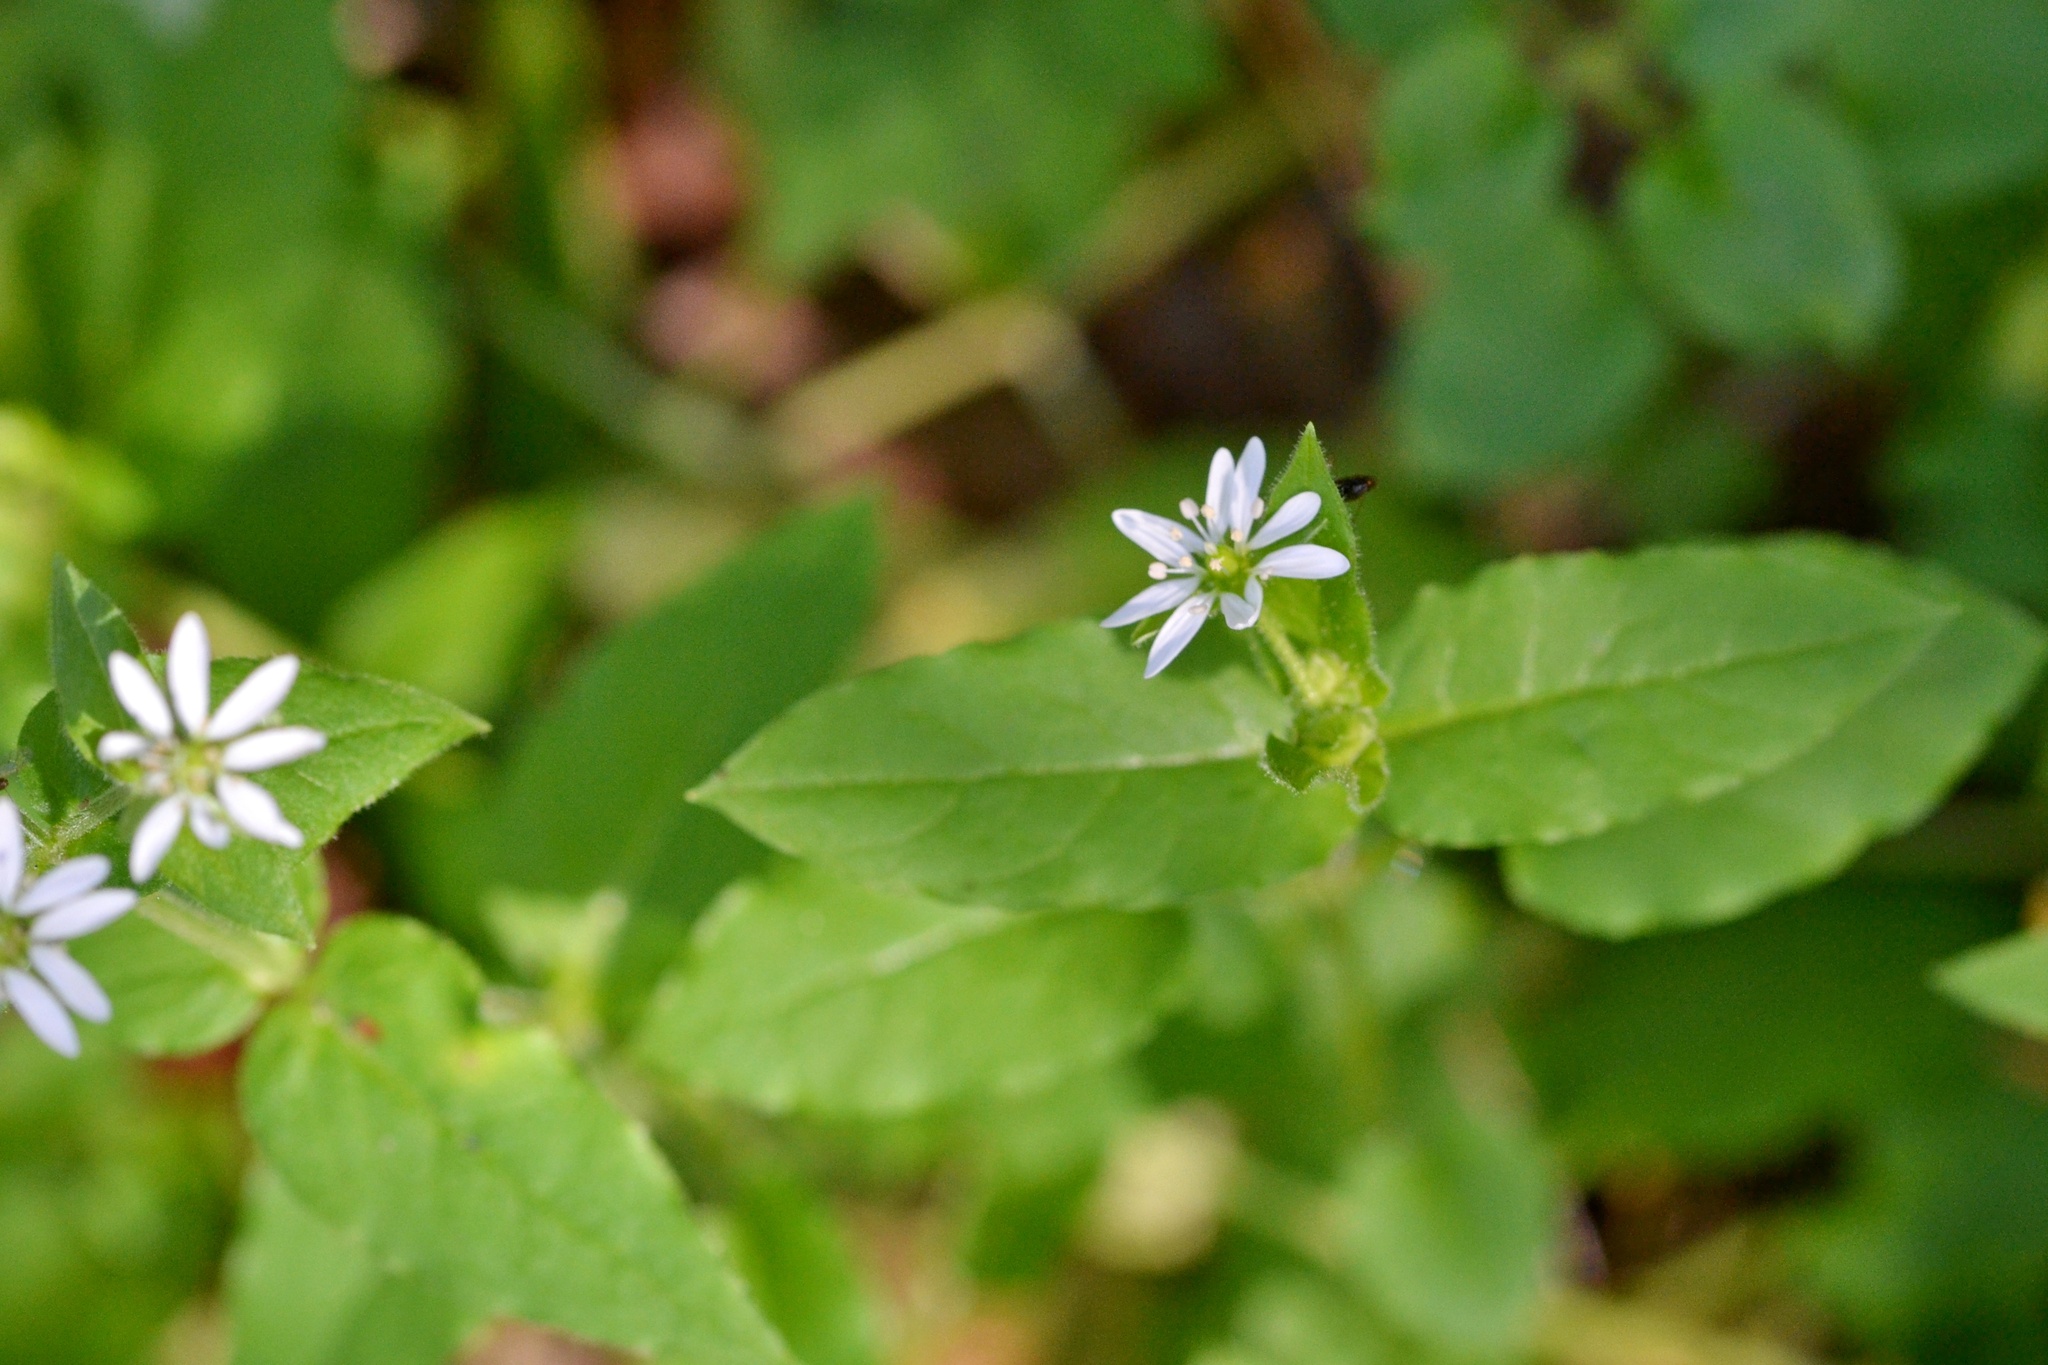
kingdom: Plantae
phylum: Tracheophyta
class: Magnoliopsida
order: Caryophyllales
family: Caryophyllaceae
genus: Stellaria
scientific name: Stellaria aquatica
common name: Water chickweed
